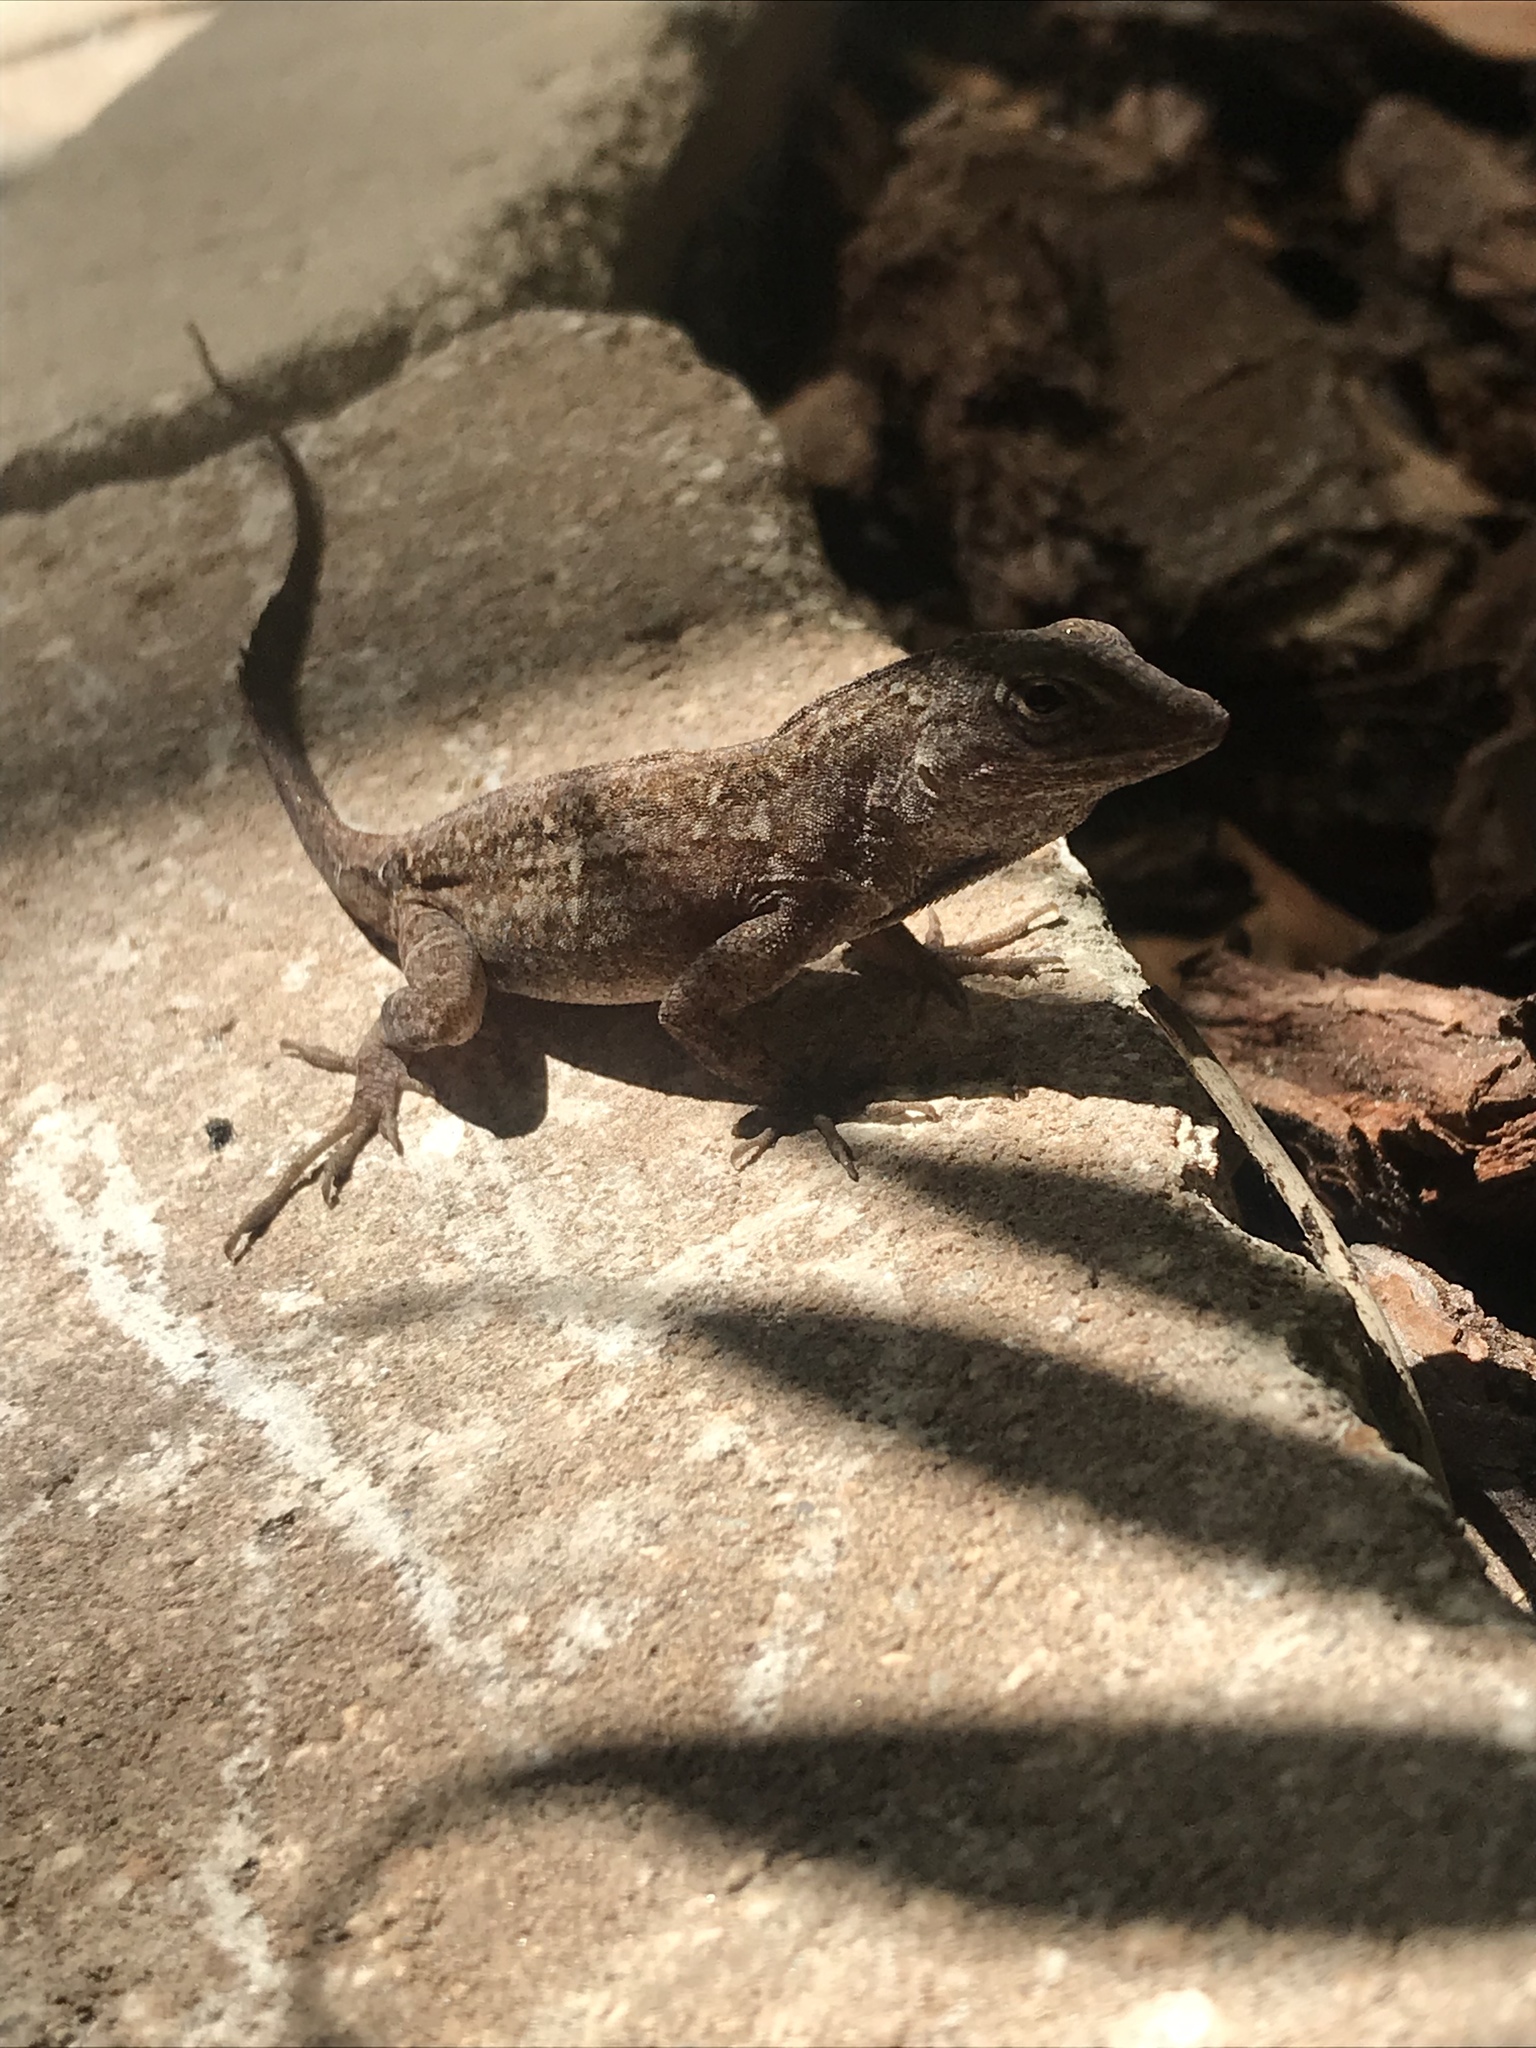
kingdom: Animalia
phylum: Chordata
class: Squamata
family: Dactyloidae
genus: Anolis
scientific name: Anolis sagrei
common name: Brown anole
